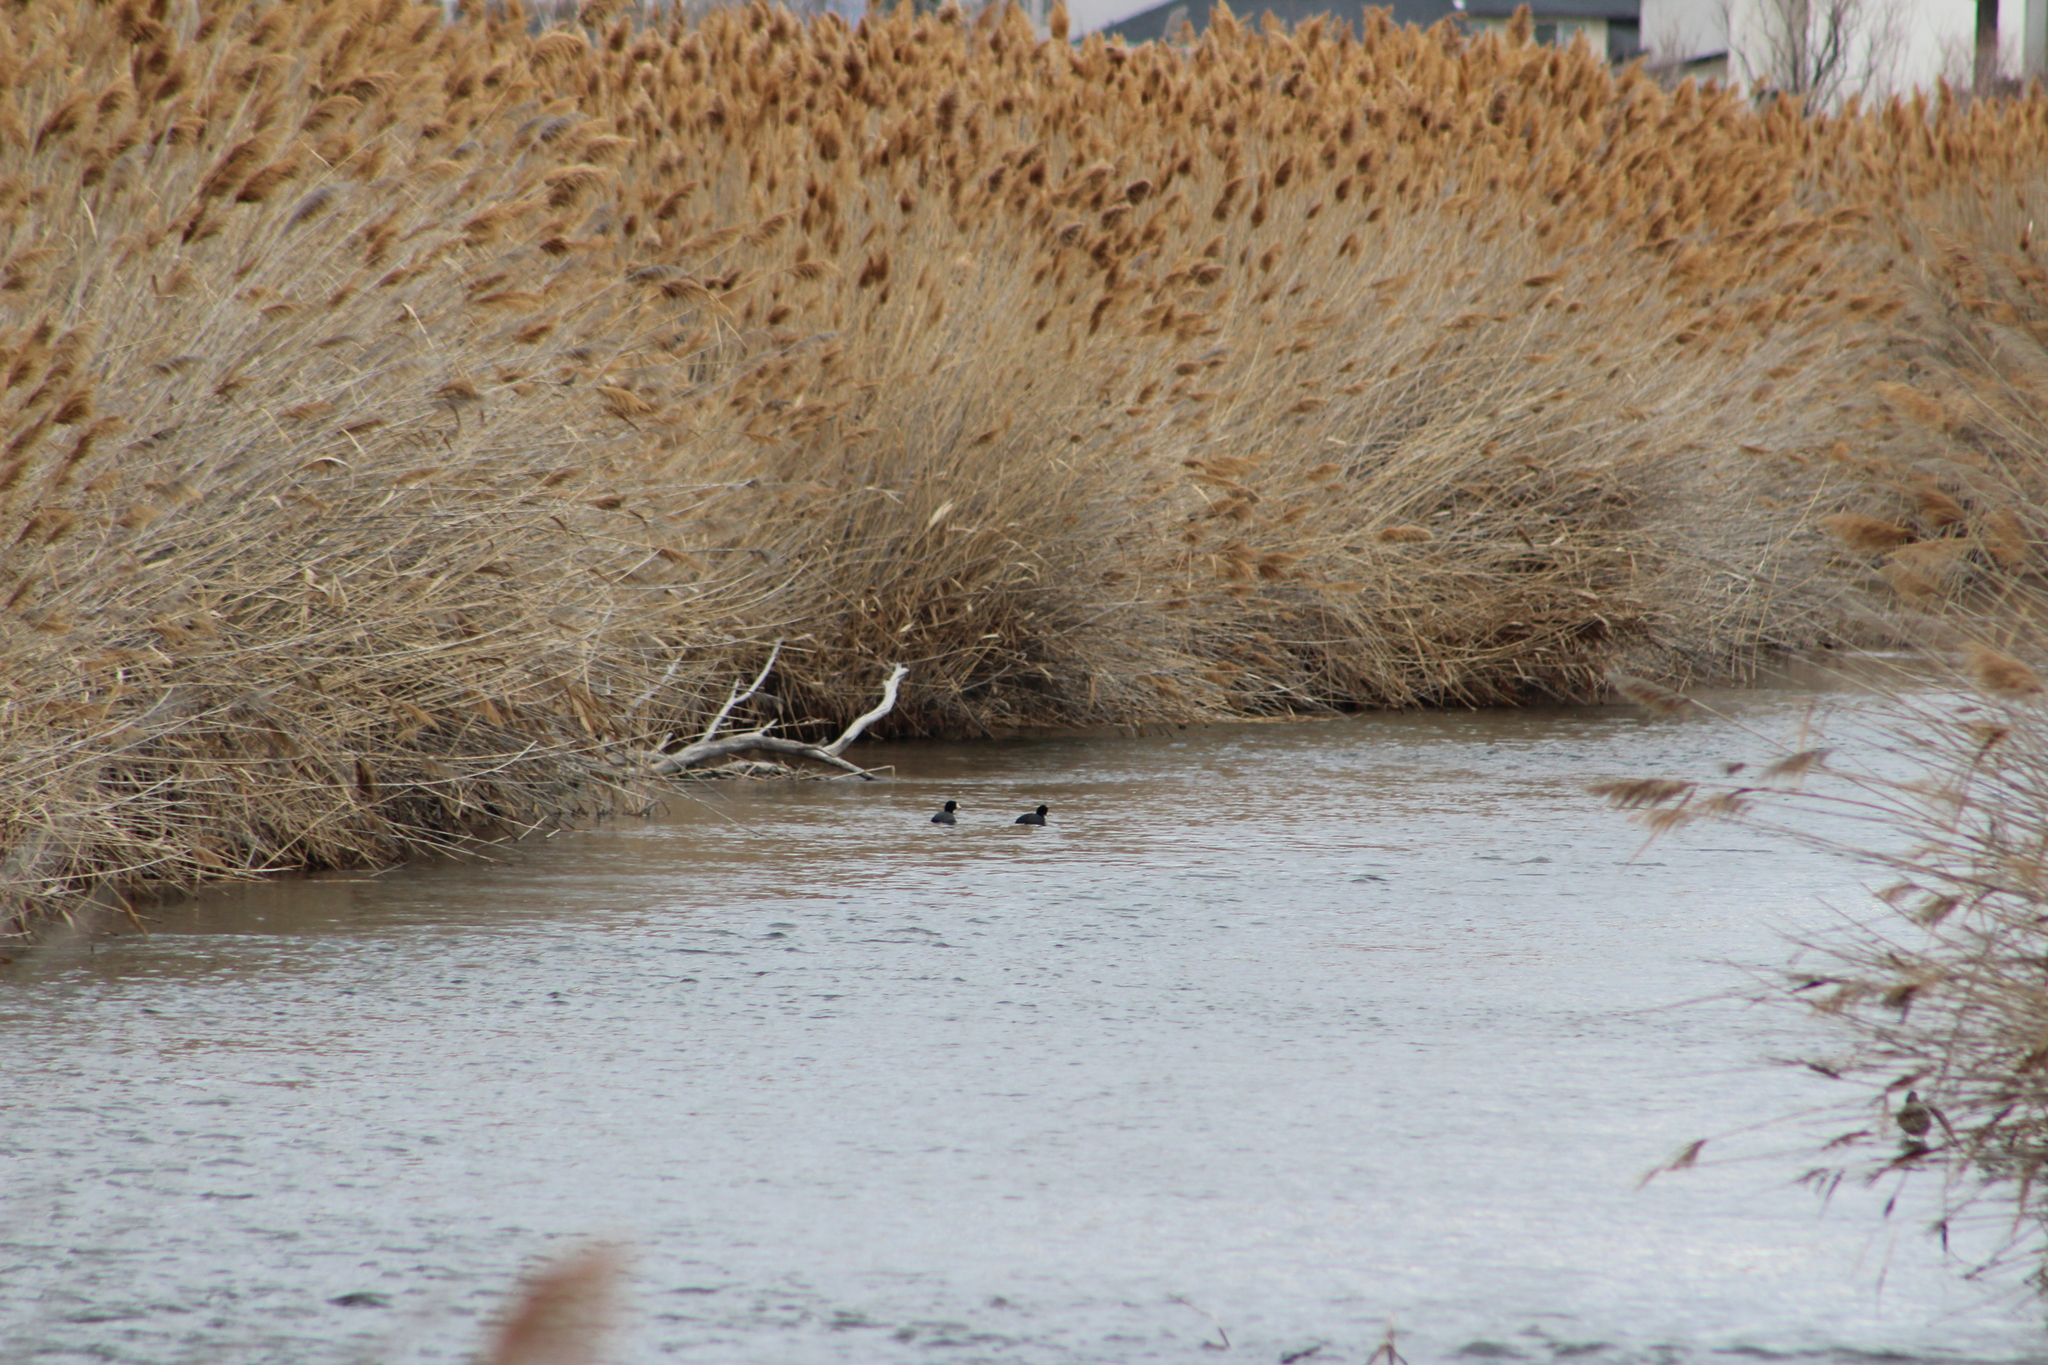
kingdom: Animalia
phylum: Chordata
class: Aves
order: Gruiformes
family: Rallidae
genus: Fulica
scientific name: Fulica americana
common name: American coot
